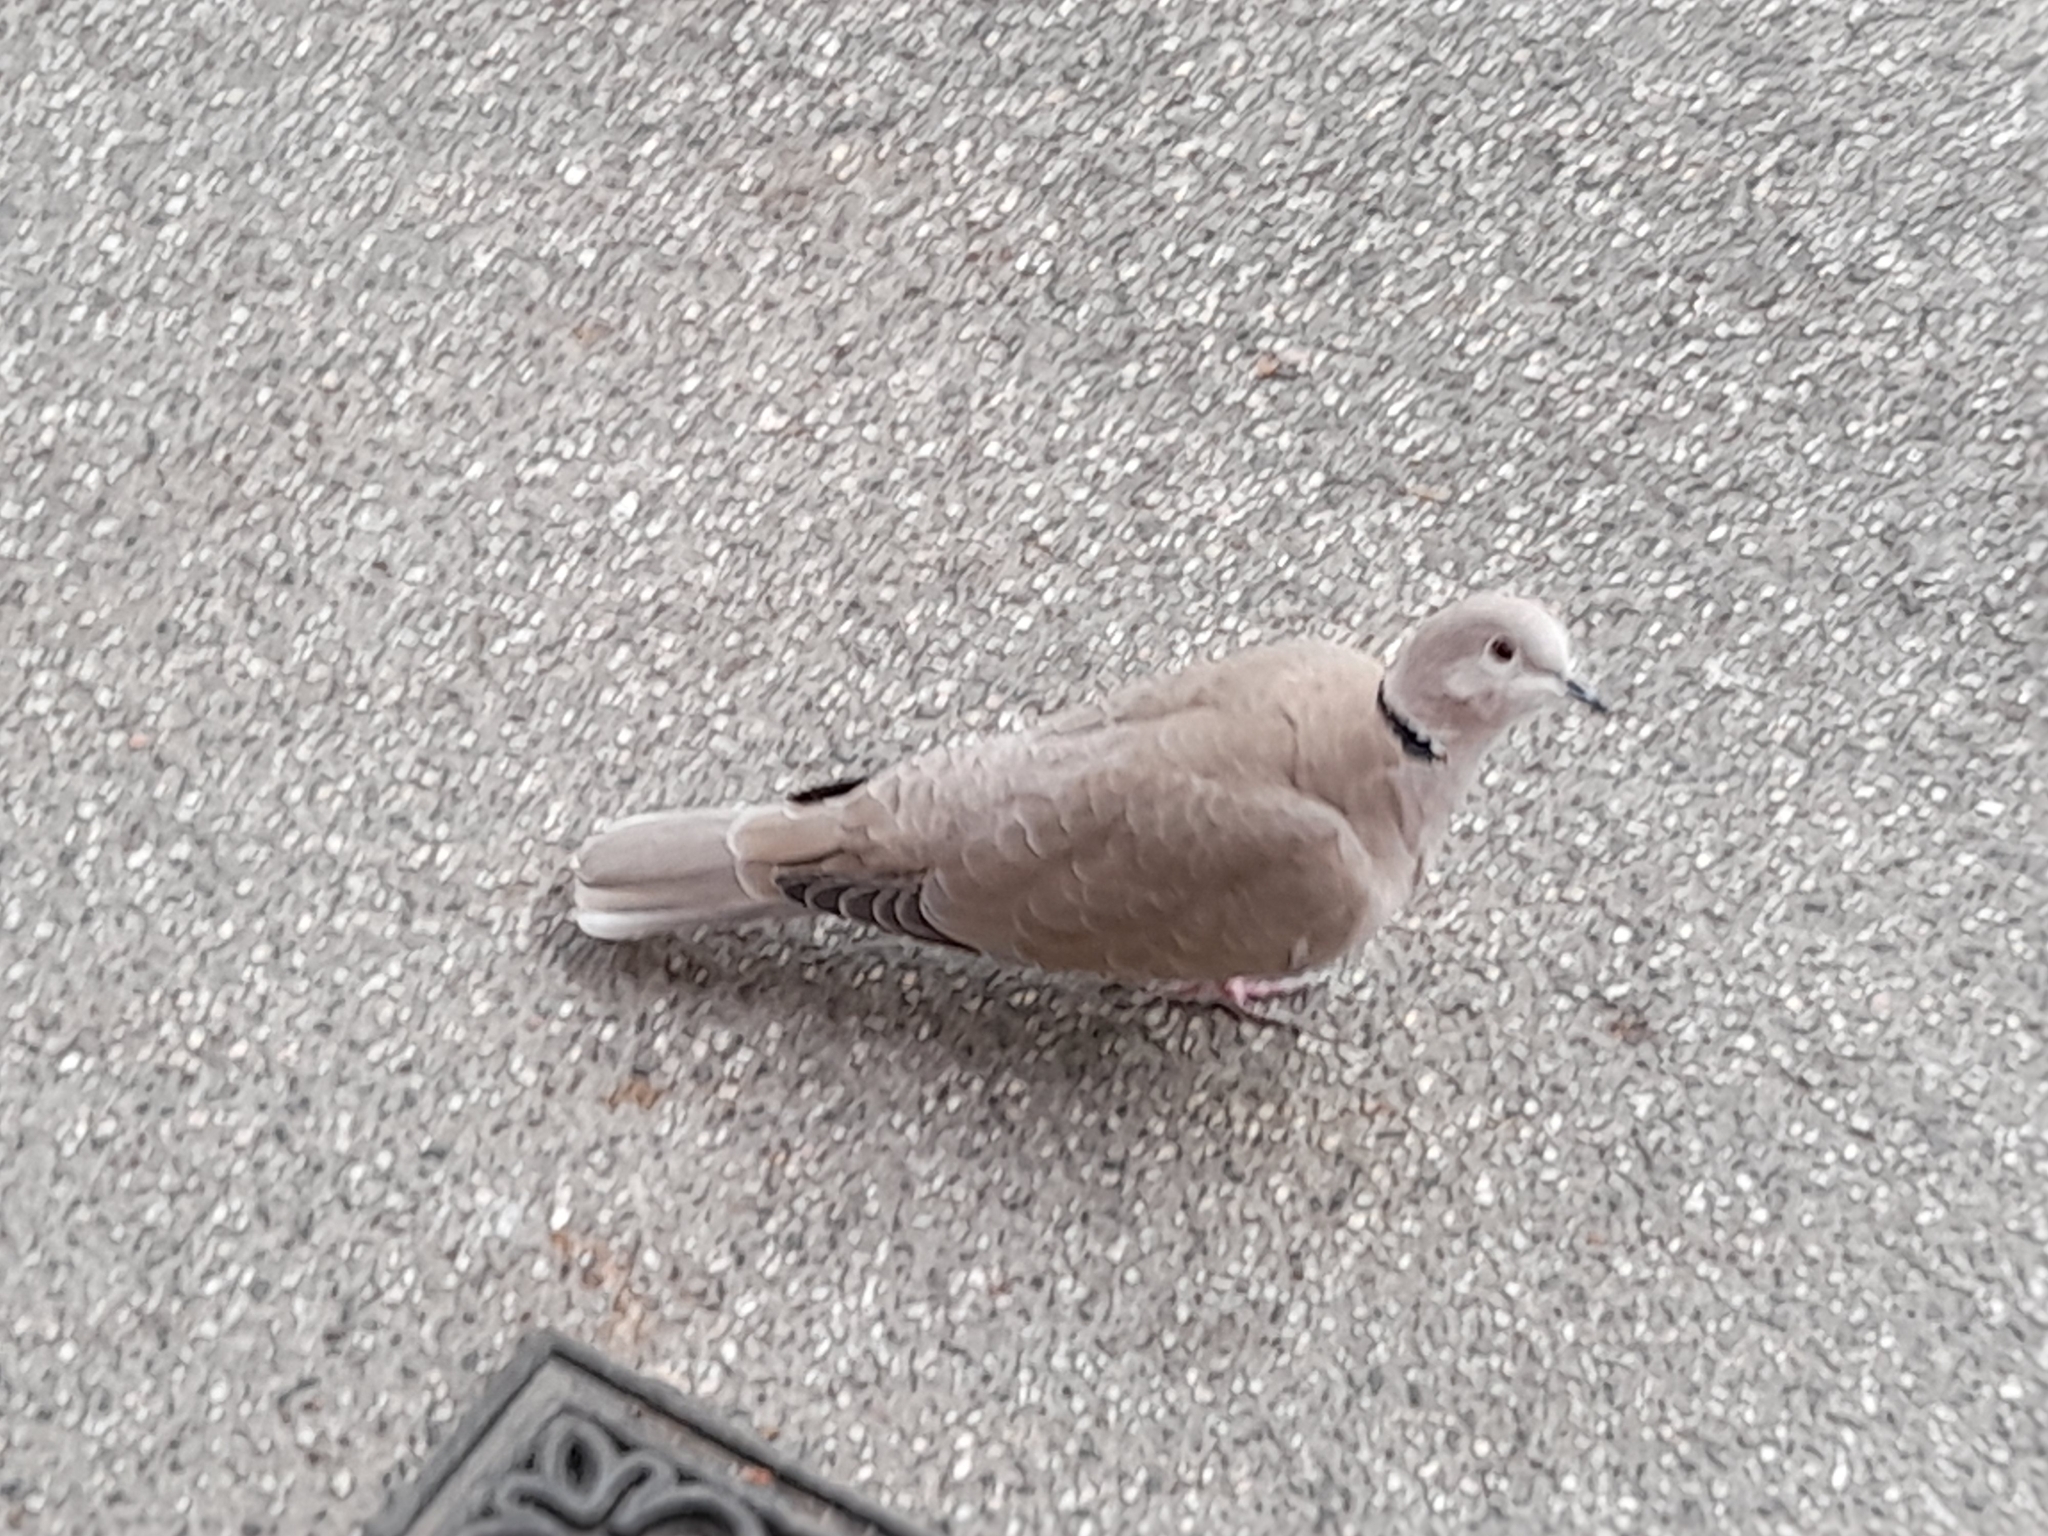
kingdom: Animalia
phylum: Chordata
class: Aves
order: Columbiformes
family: Columbidae
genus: Streptopelia
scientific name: Streptopelia decaocto
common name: Eurasian collared dove
